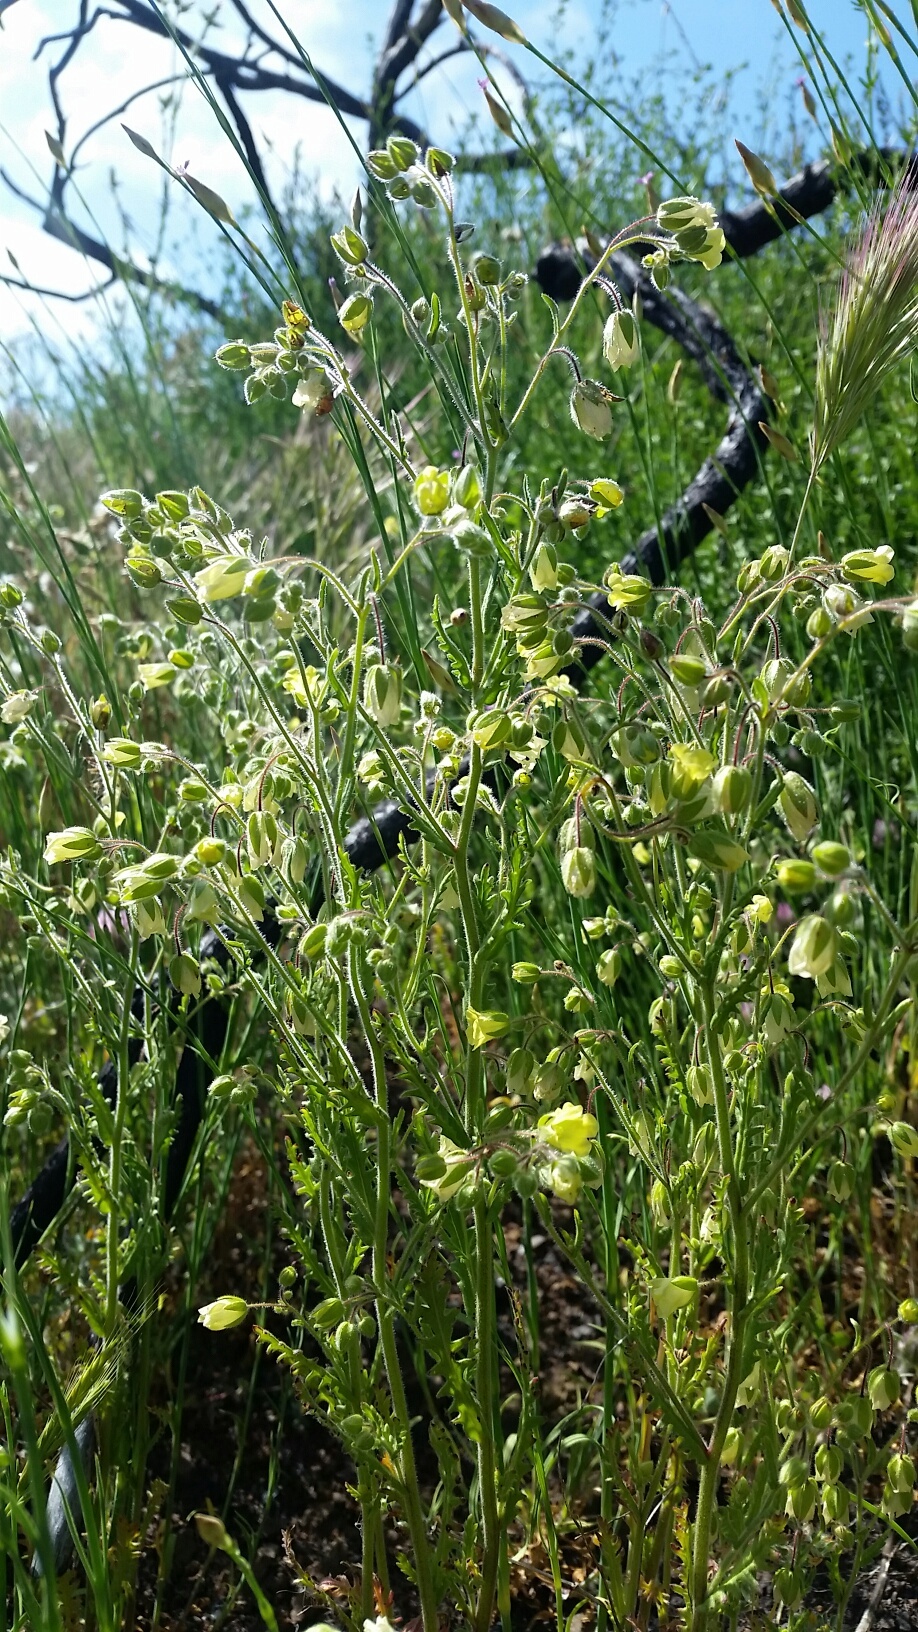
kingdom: Plantae
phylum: Tracheophyta
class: Magnoliopsida
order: Boraginales
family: Hydrophyllaceae
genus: Emmenanthe
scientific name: Emmenanthe penduliflora
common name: Whispering-bells
